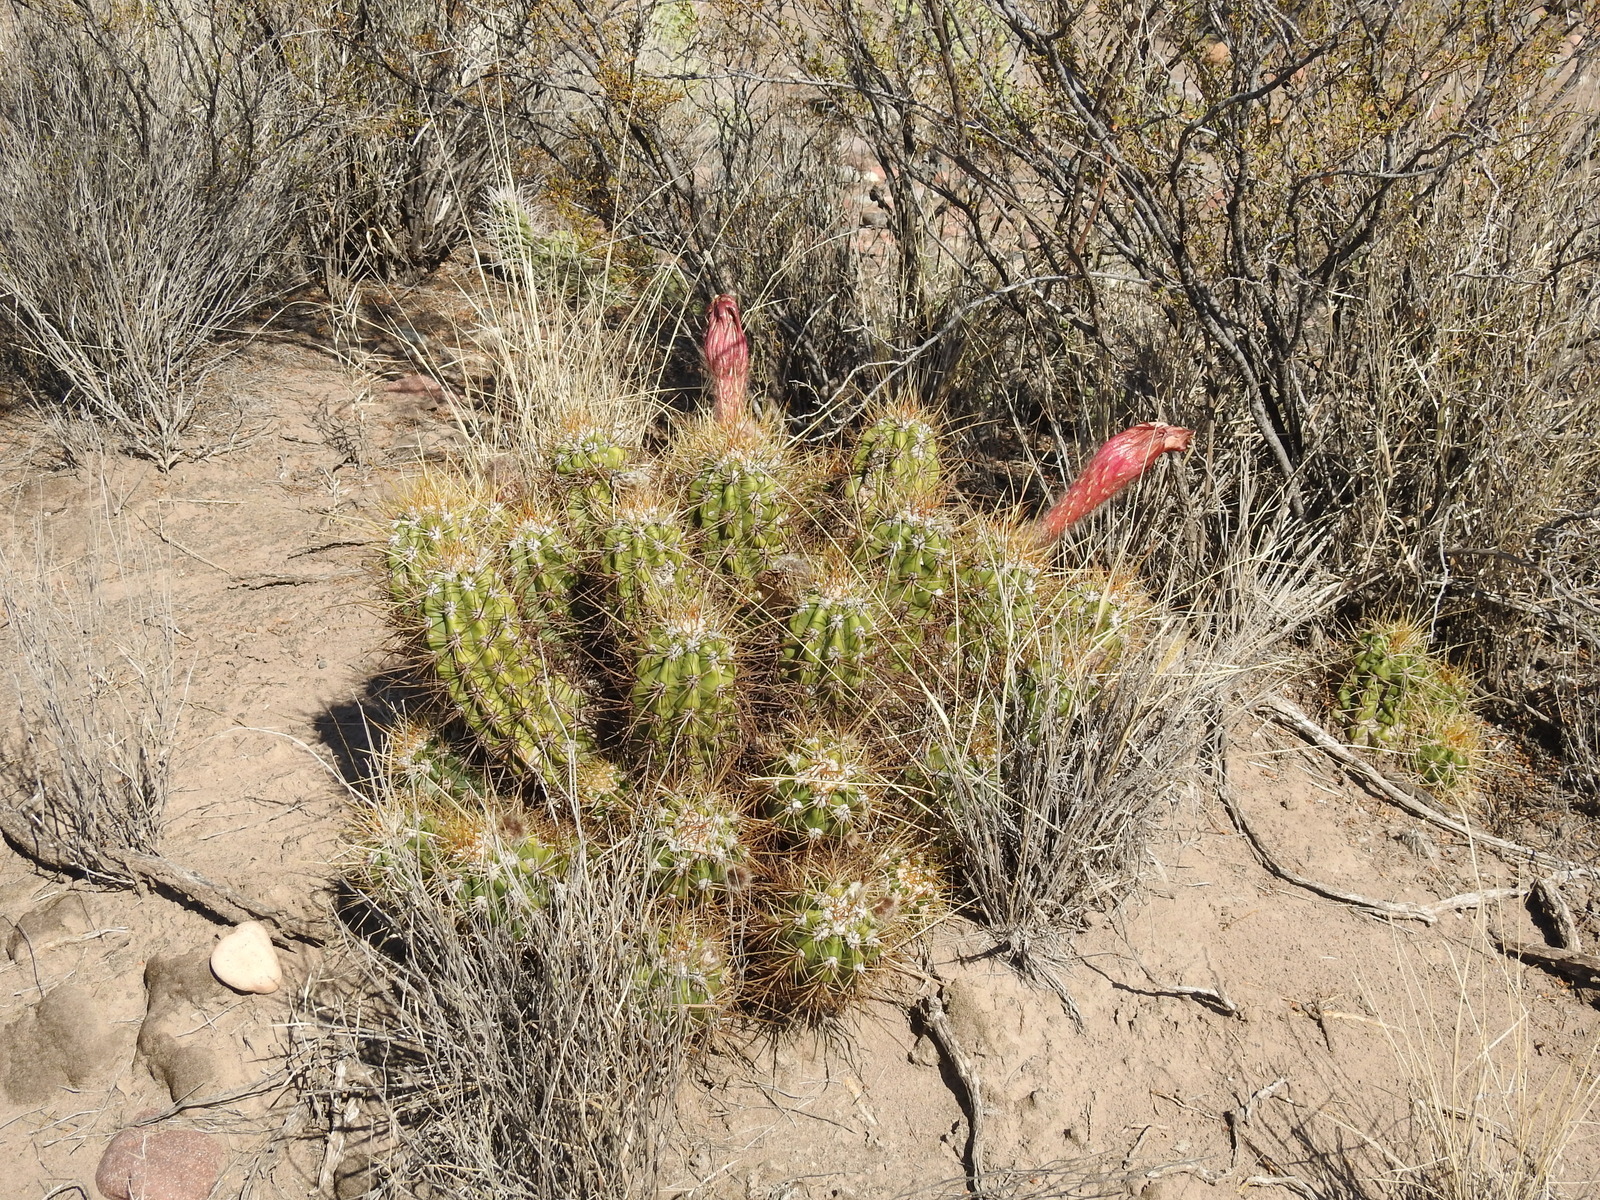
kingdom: Plantae
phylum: Tracheophyta
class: Magnoliopsida
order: Caryophyllales
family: Cactaceae
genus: Soehrensia
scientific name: Soehrensia candicans
